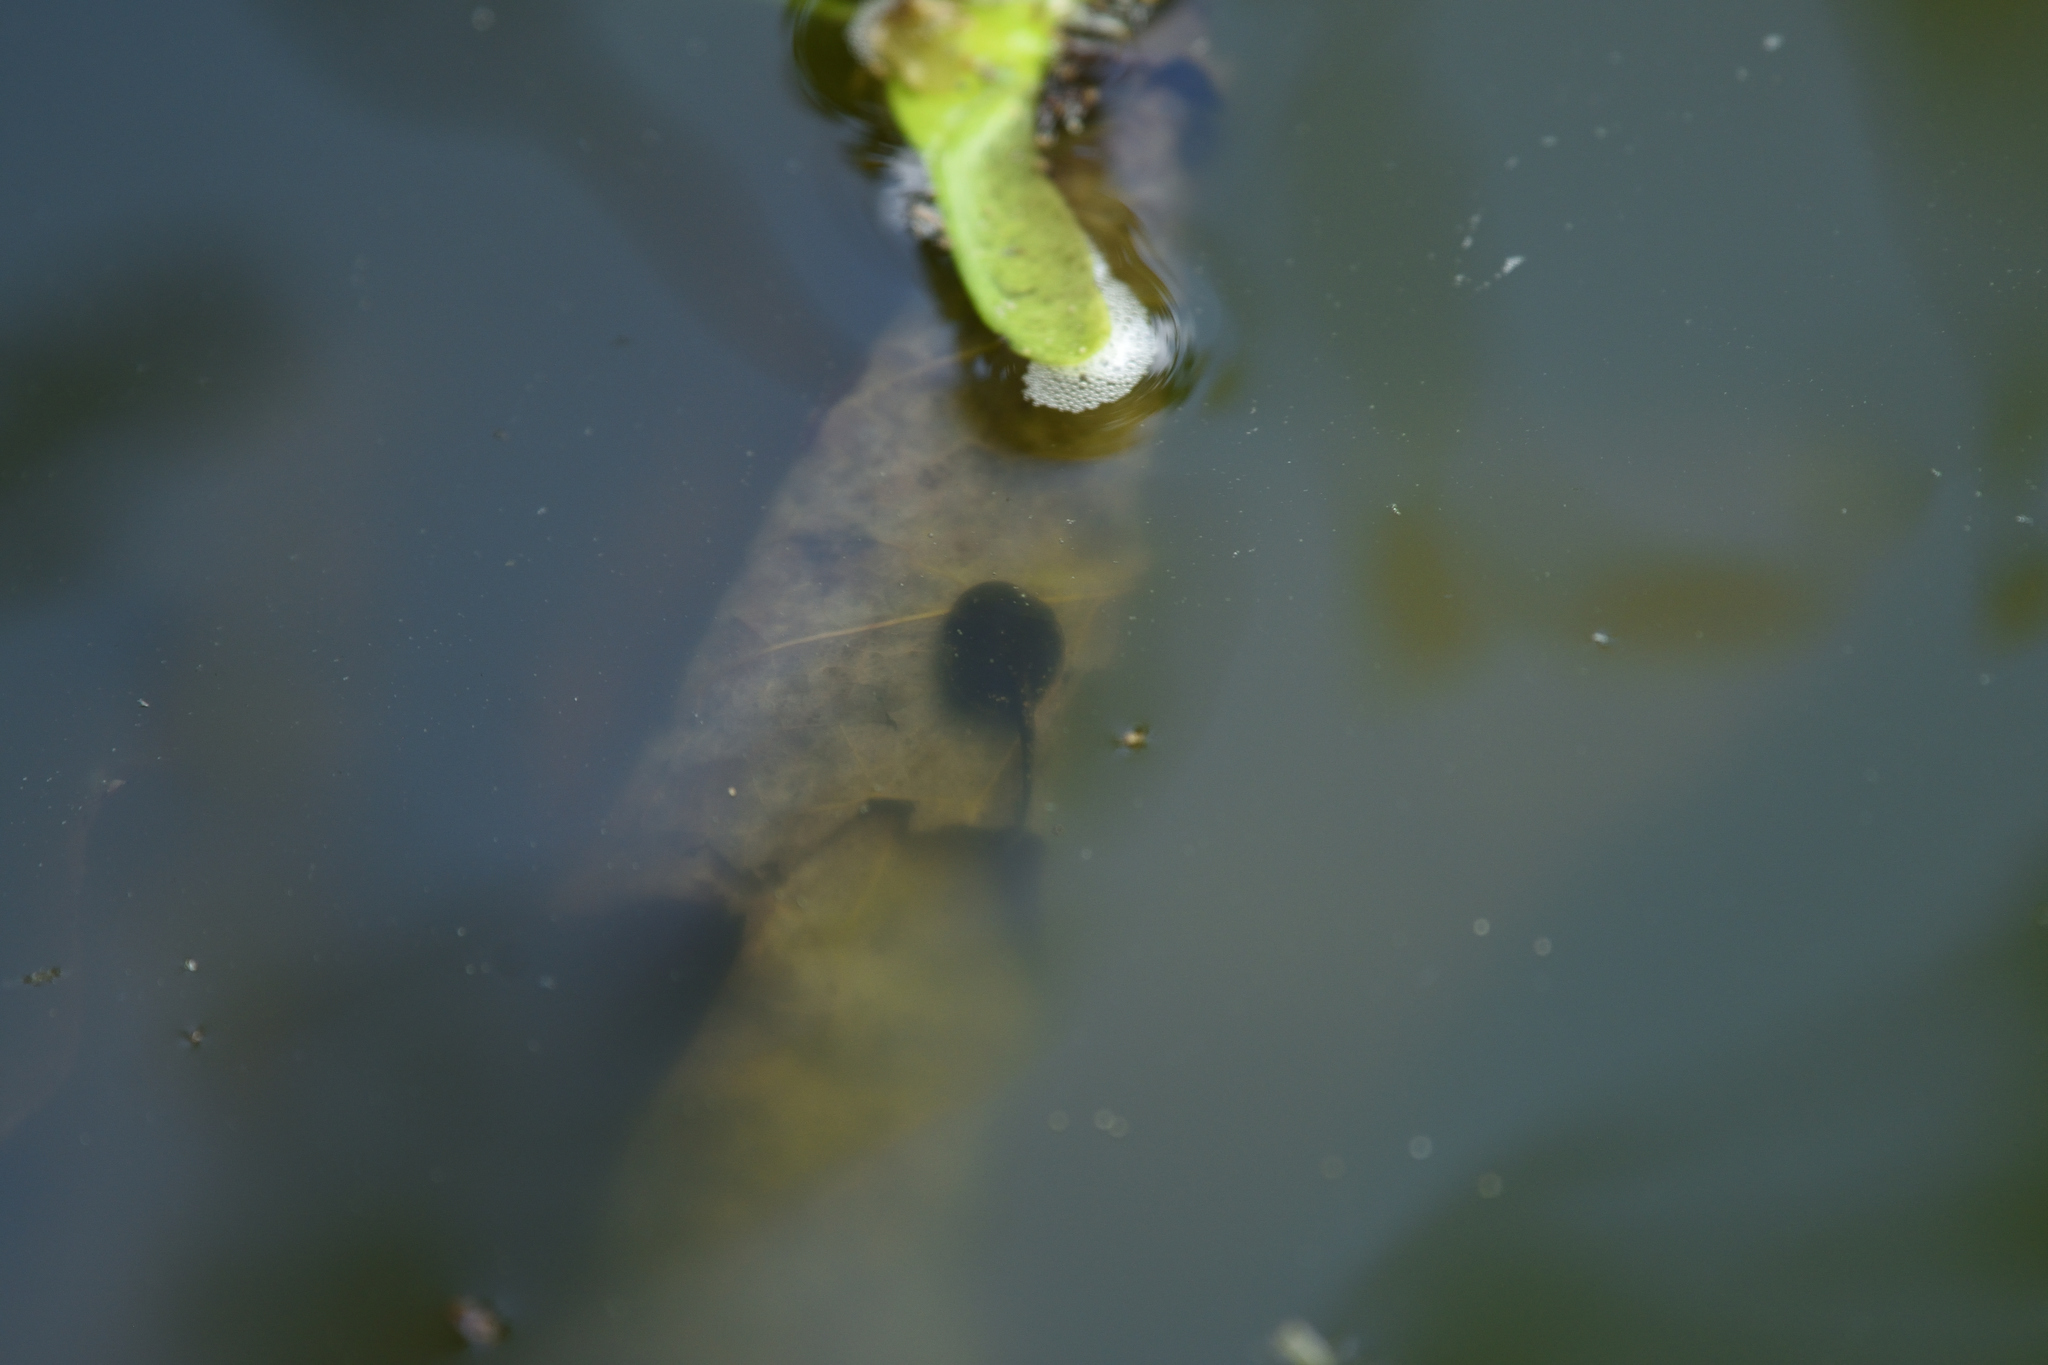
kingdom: Animalia
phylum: Chordata
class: Amphibia
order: Anura
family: Bufonidae
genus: Anaxyrus
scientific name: Anaxyrus americanus
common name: American toad
